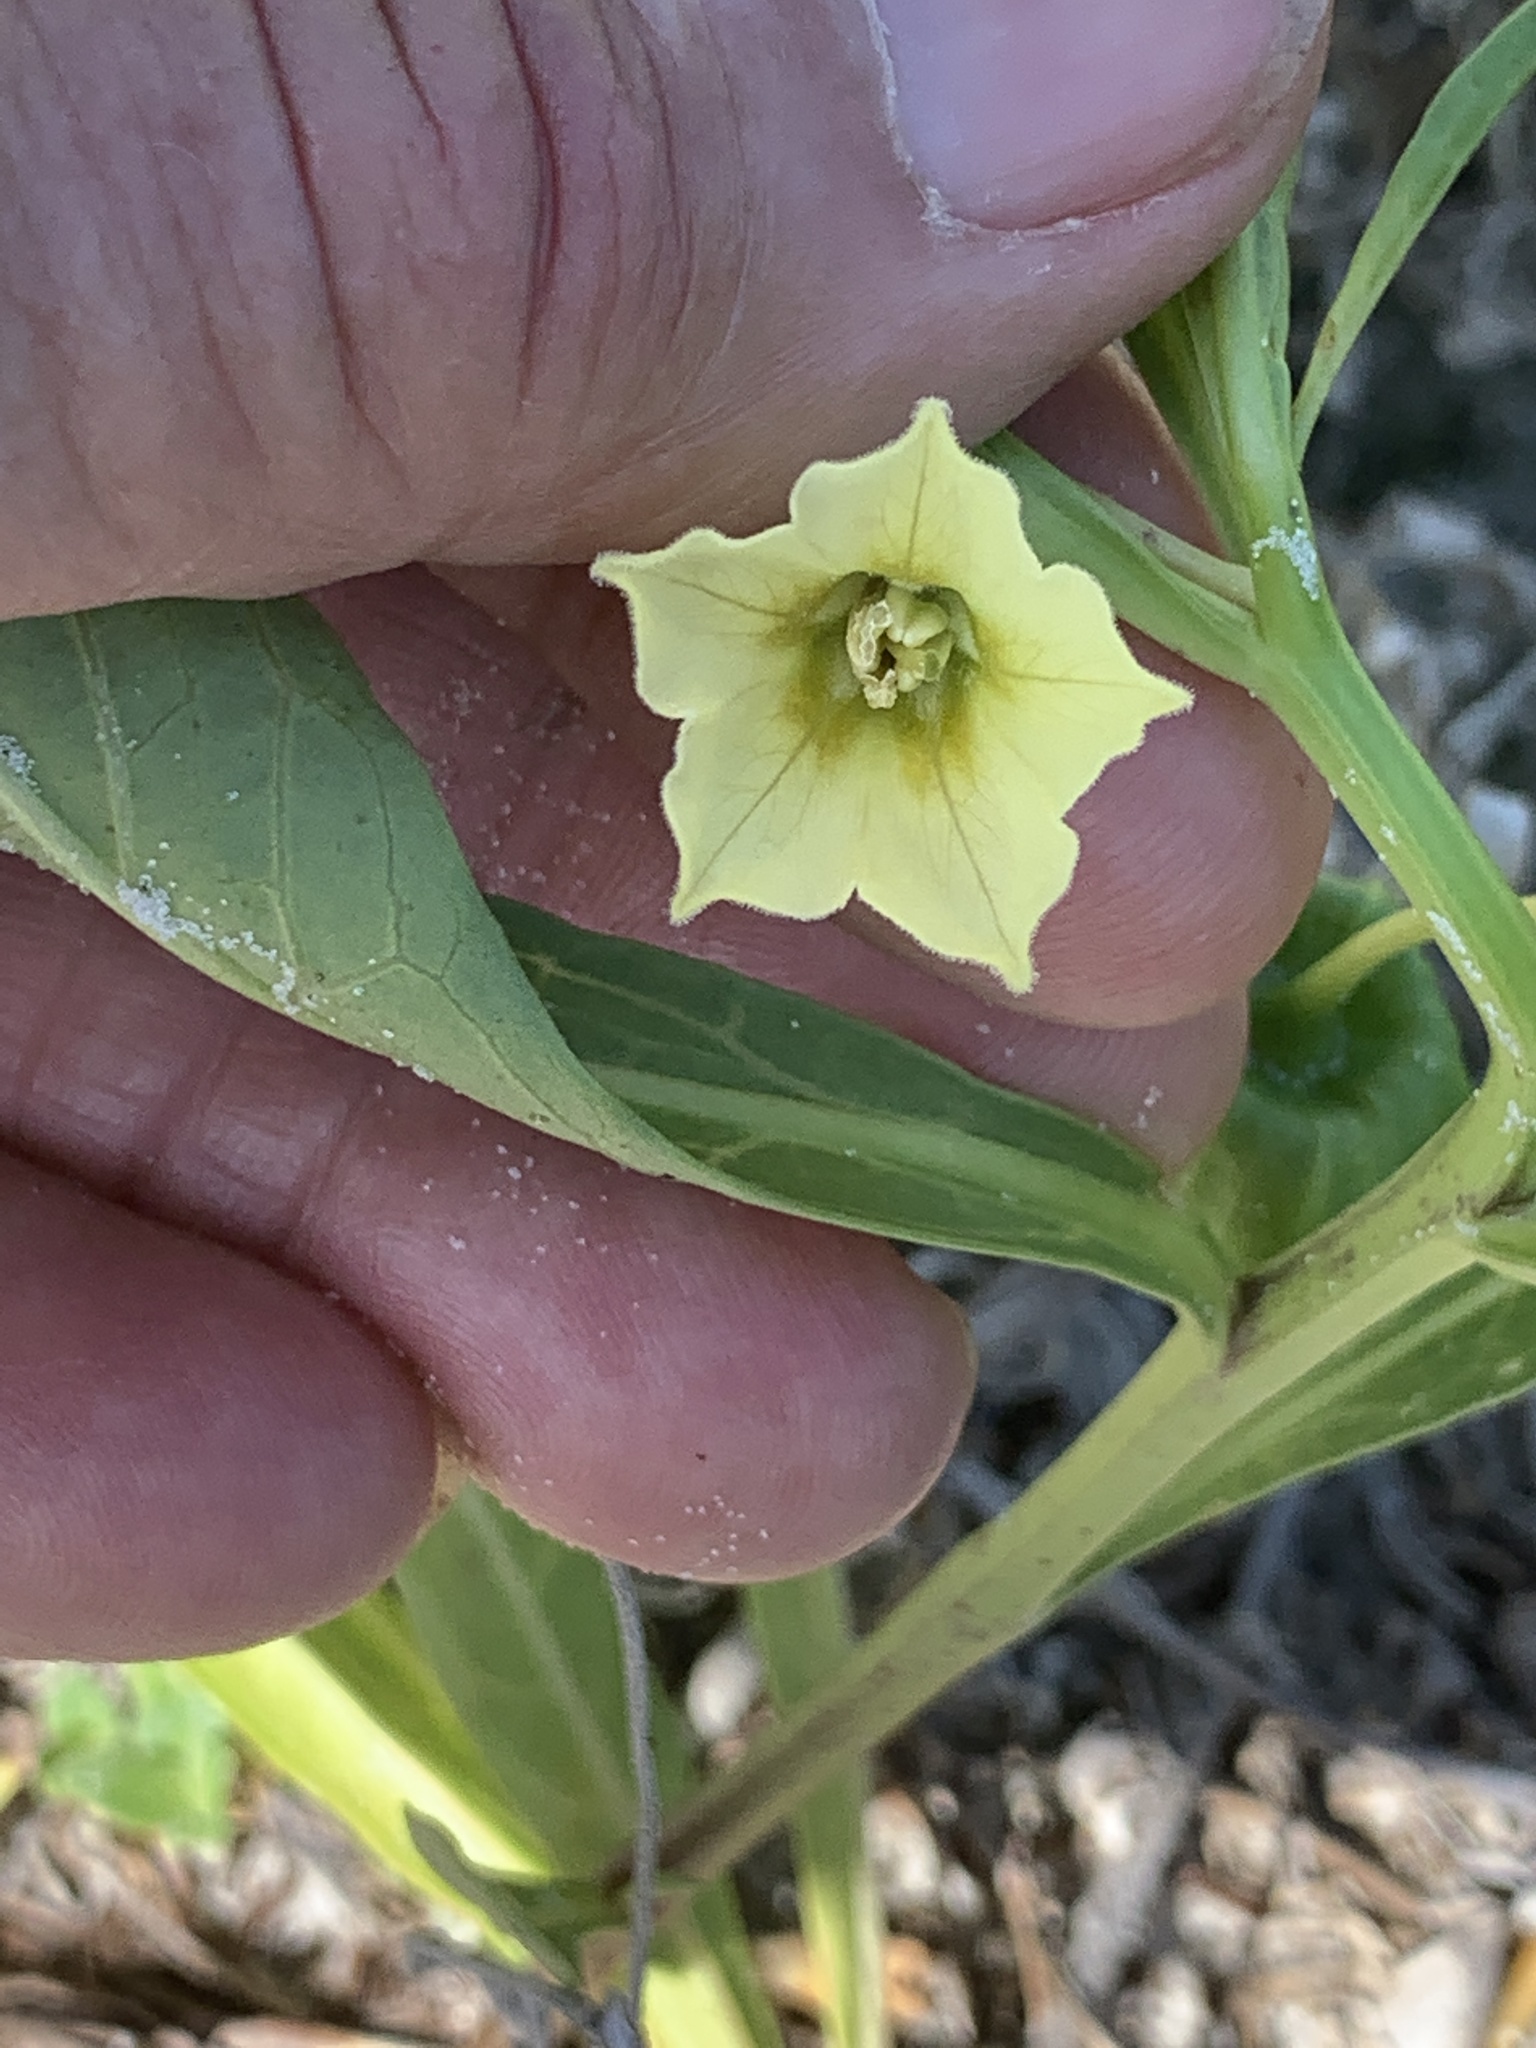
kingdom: Plantae
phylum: Tracheophyta
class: Magnoliopsida
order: Solanales
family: Solanaceae
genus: Physalis
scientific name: Physalis angustifolia
